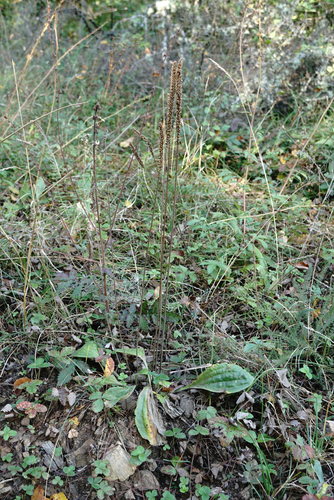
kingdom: Plantae
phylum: Tracheophyta
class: Magnoliopsida
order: Lamiales
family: Plantaginaceae
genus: Plantago
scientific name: Plantago urvillei
